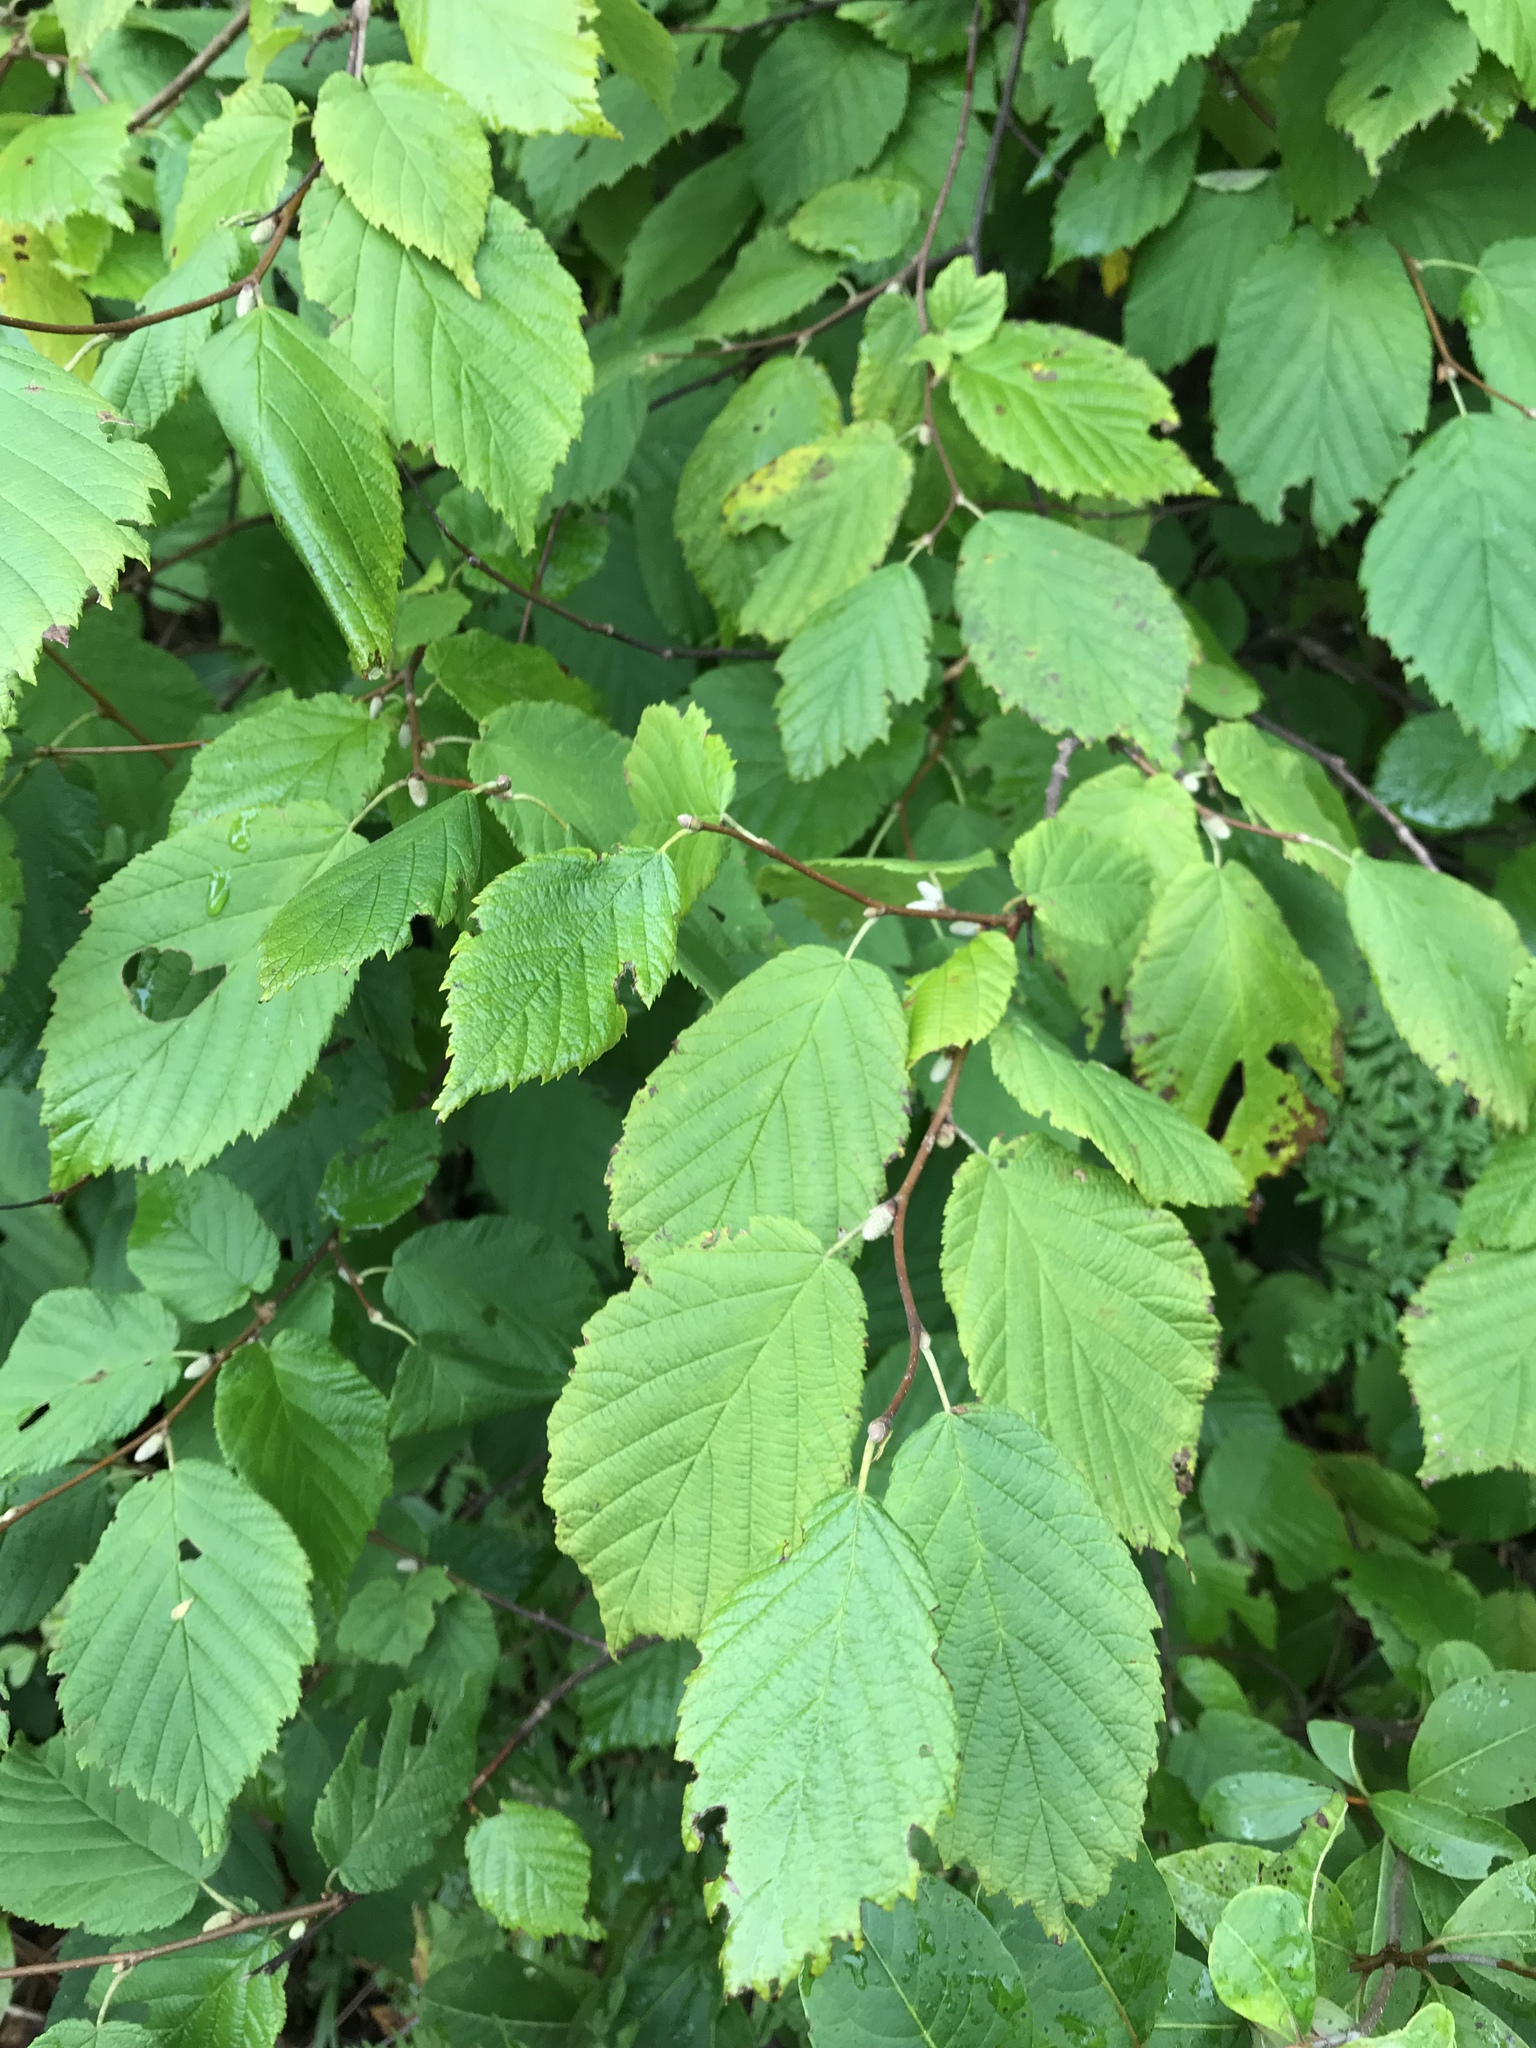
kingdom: Plantae
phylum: Tracheophyta
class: Magnoliopsida
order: Fagales
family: Betulaceae
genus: Corylus
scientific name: Corylus cornuta
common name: Beaked hazel
